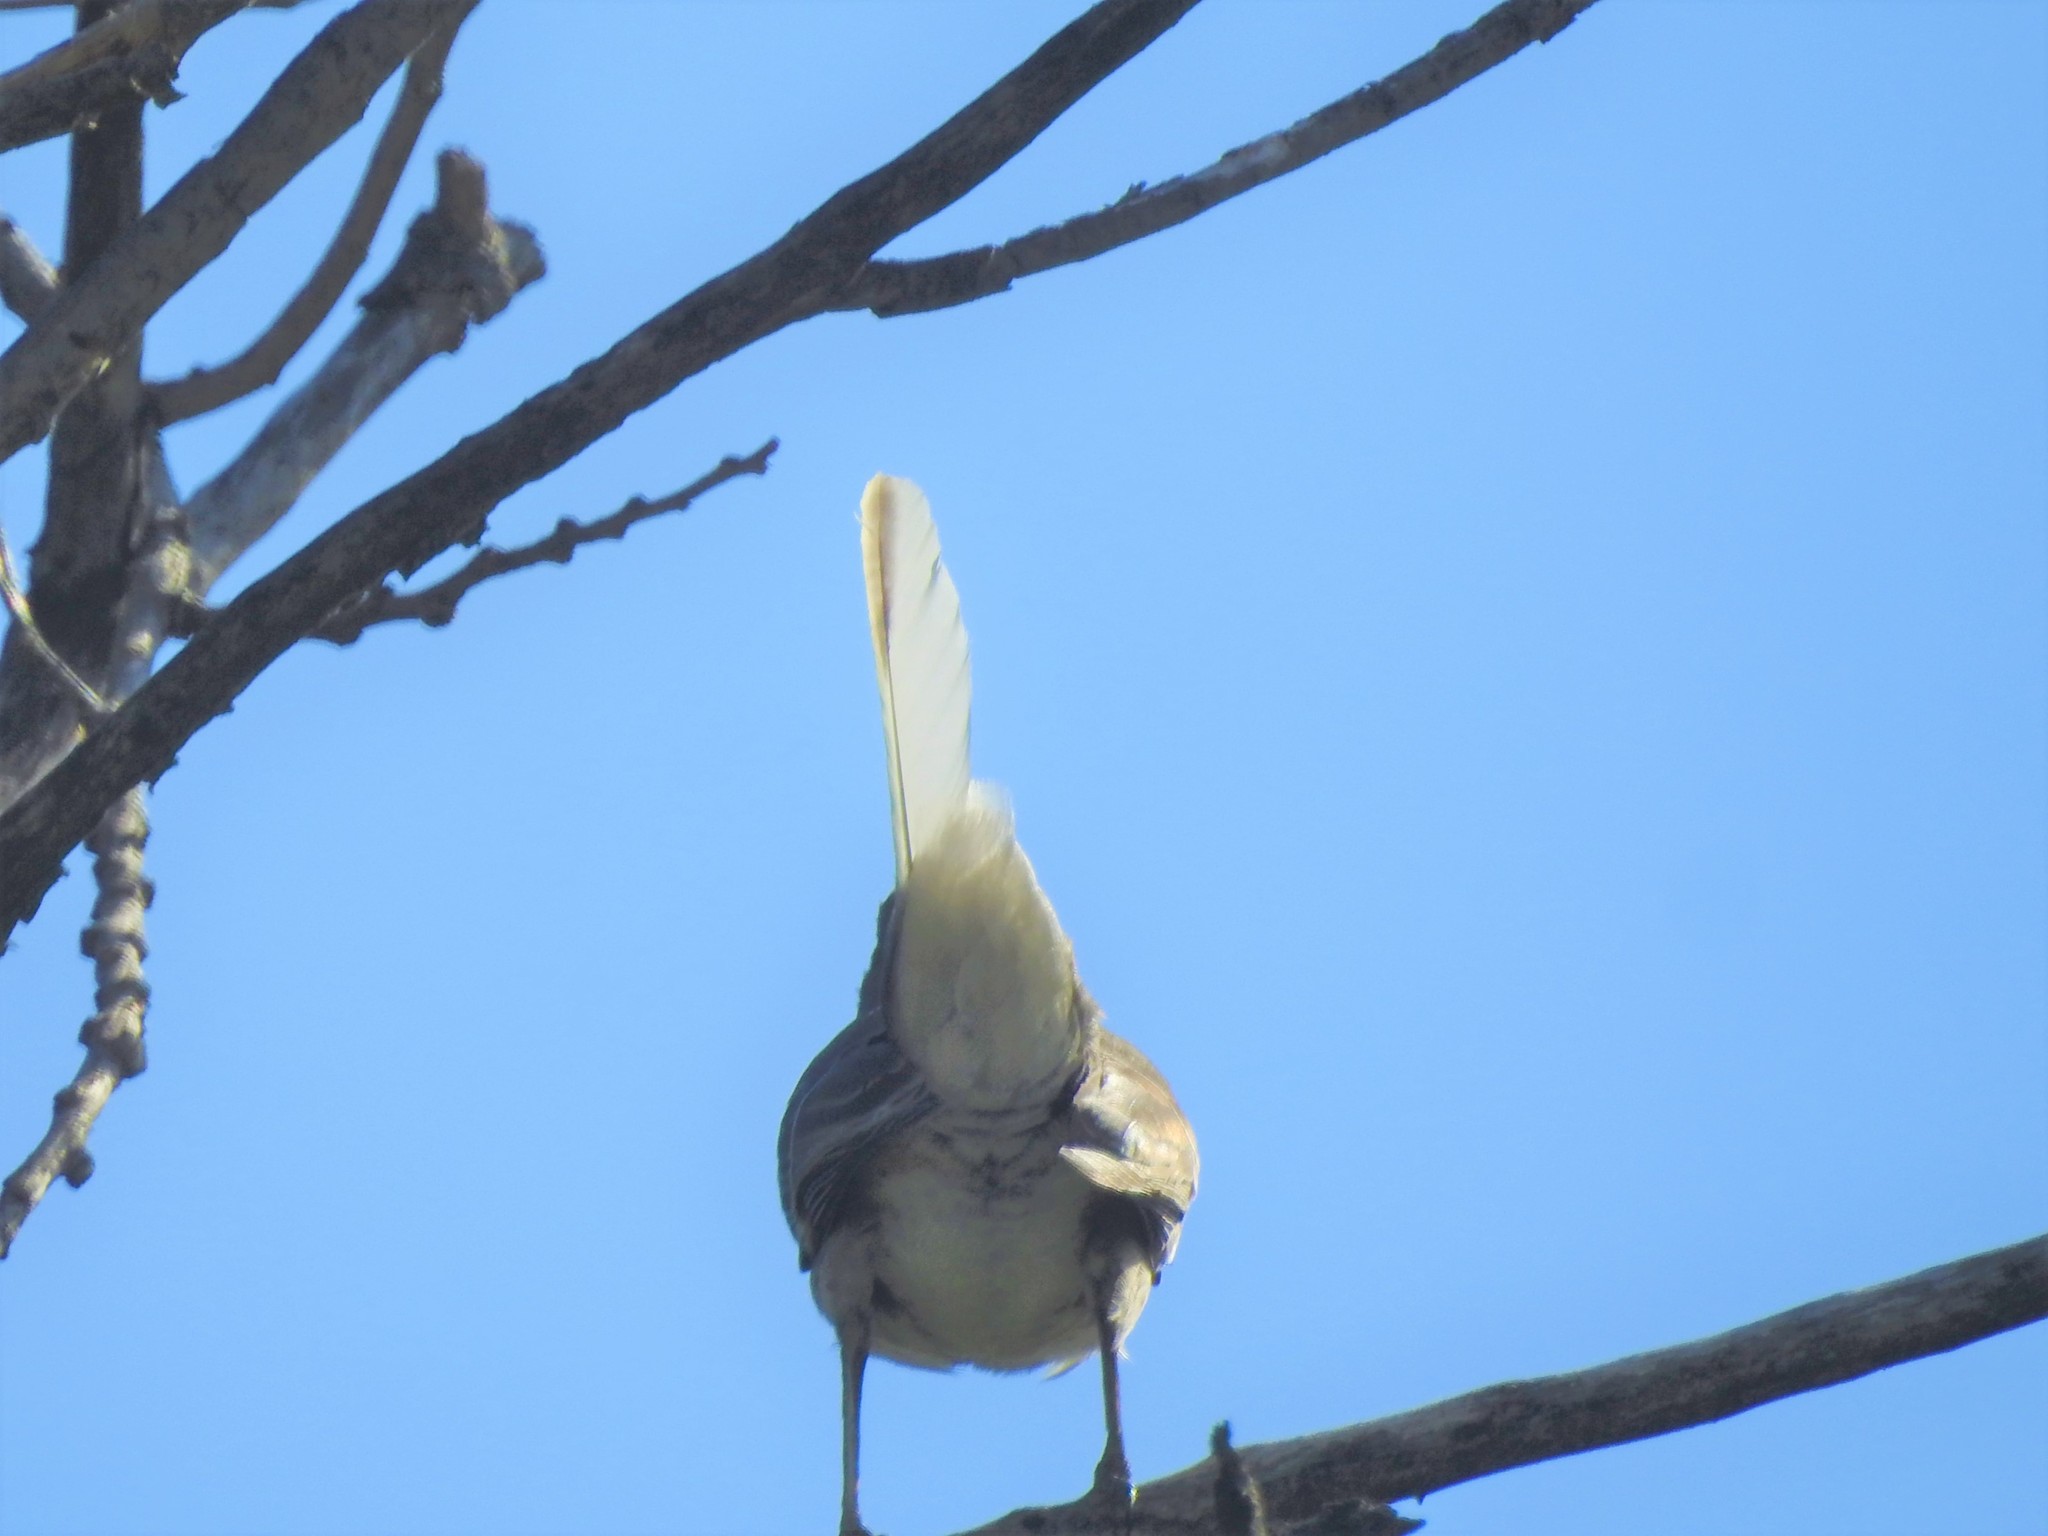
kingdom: Animalia
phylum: Chordata
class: Aves
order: Passeriformes
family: Mimidae
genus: Mimus
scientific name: Mimus polyglottos
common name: Northern mockingbird
